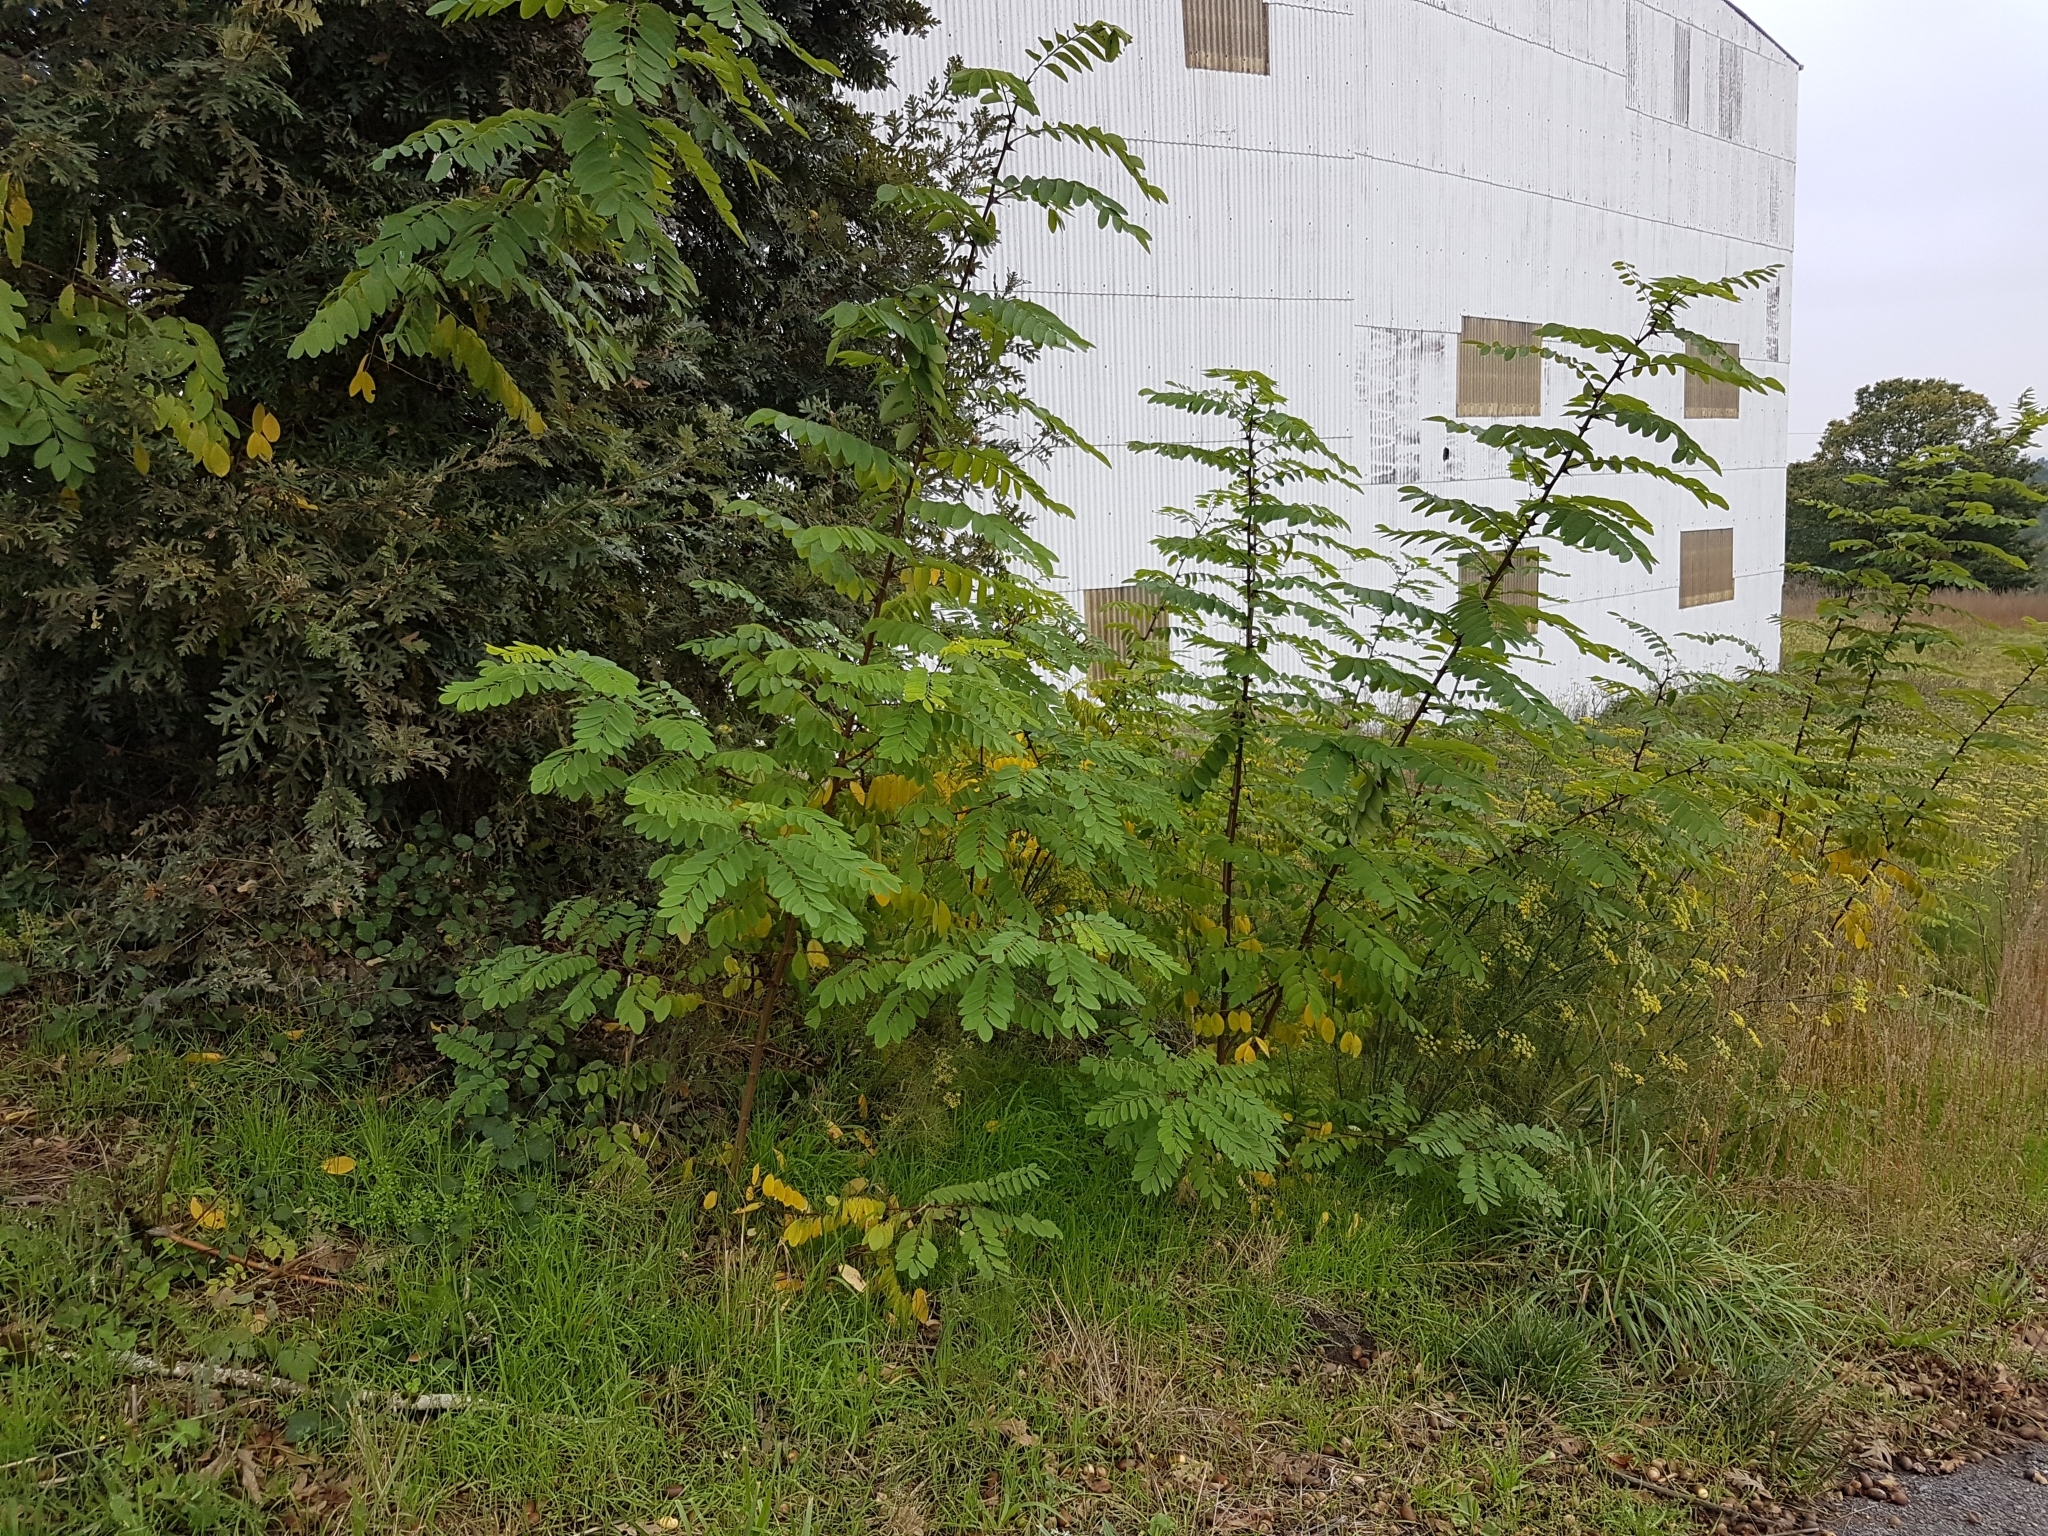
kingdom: Plantae
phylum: Tracheophyta
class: Magnoliopsida
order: Fabales
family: Fabaceae
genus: Robinia
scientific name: Robinia pseudoacacia
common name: Black locust
